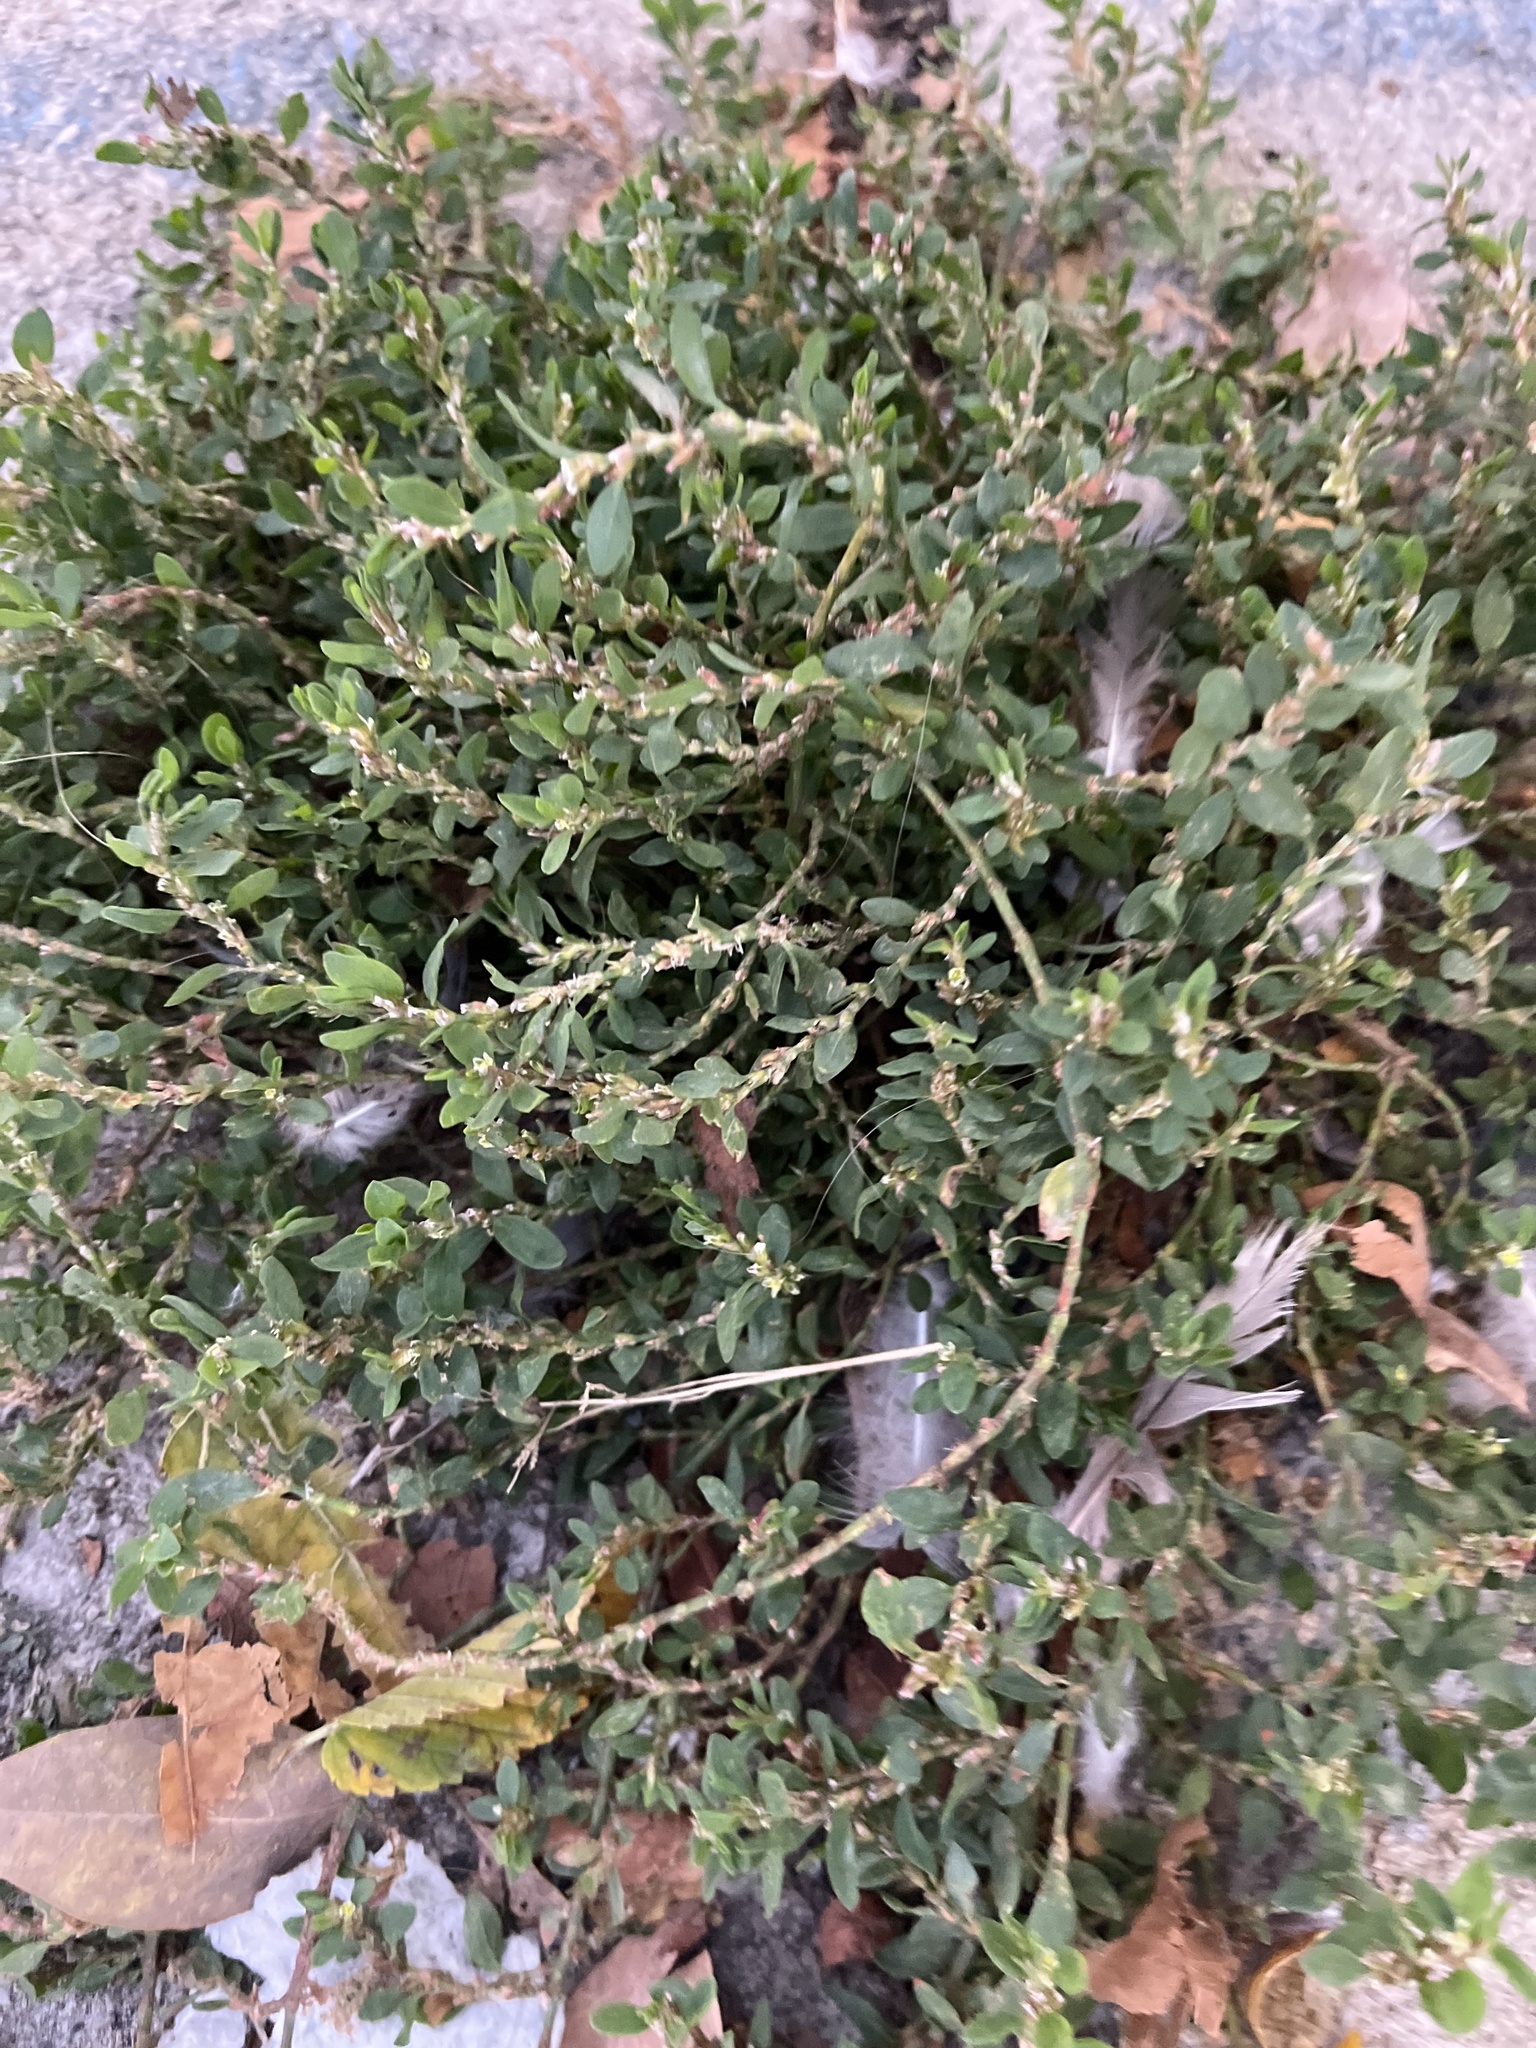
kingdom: Plantae
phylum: Tracheophyta
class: Magnoliopsida
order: Caryophyllales
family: Polygonaceae
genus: Polygonum
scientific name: Polygonum aviculare
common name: Prostrate knotweed
